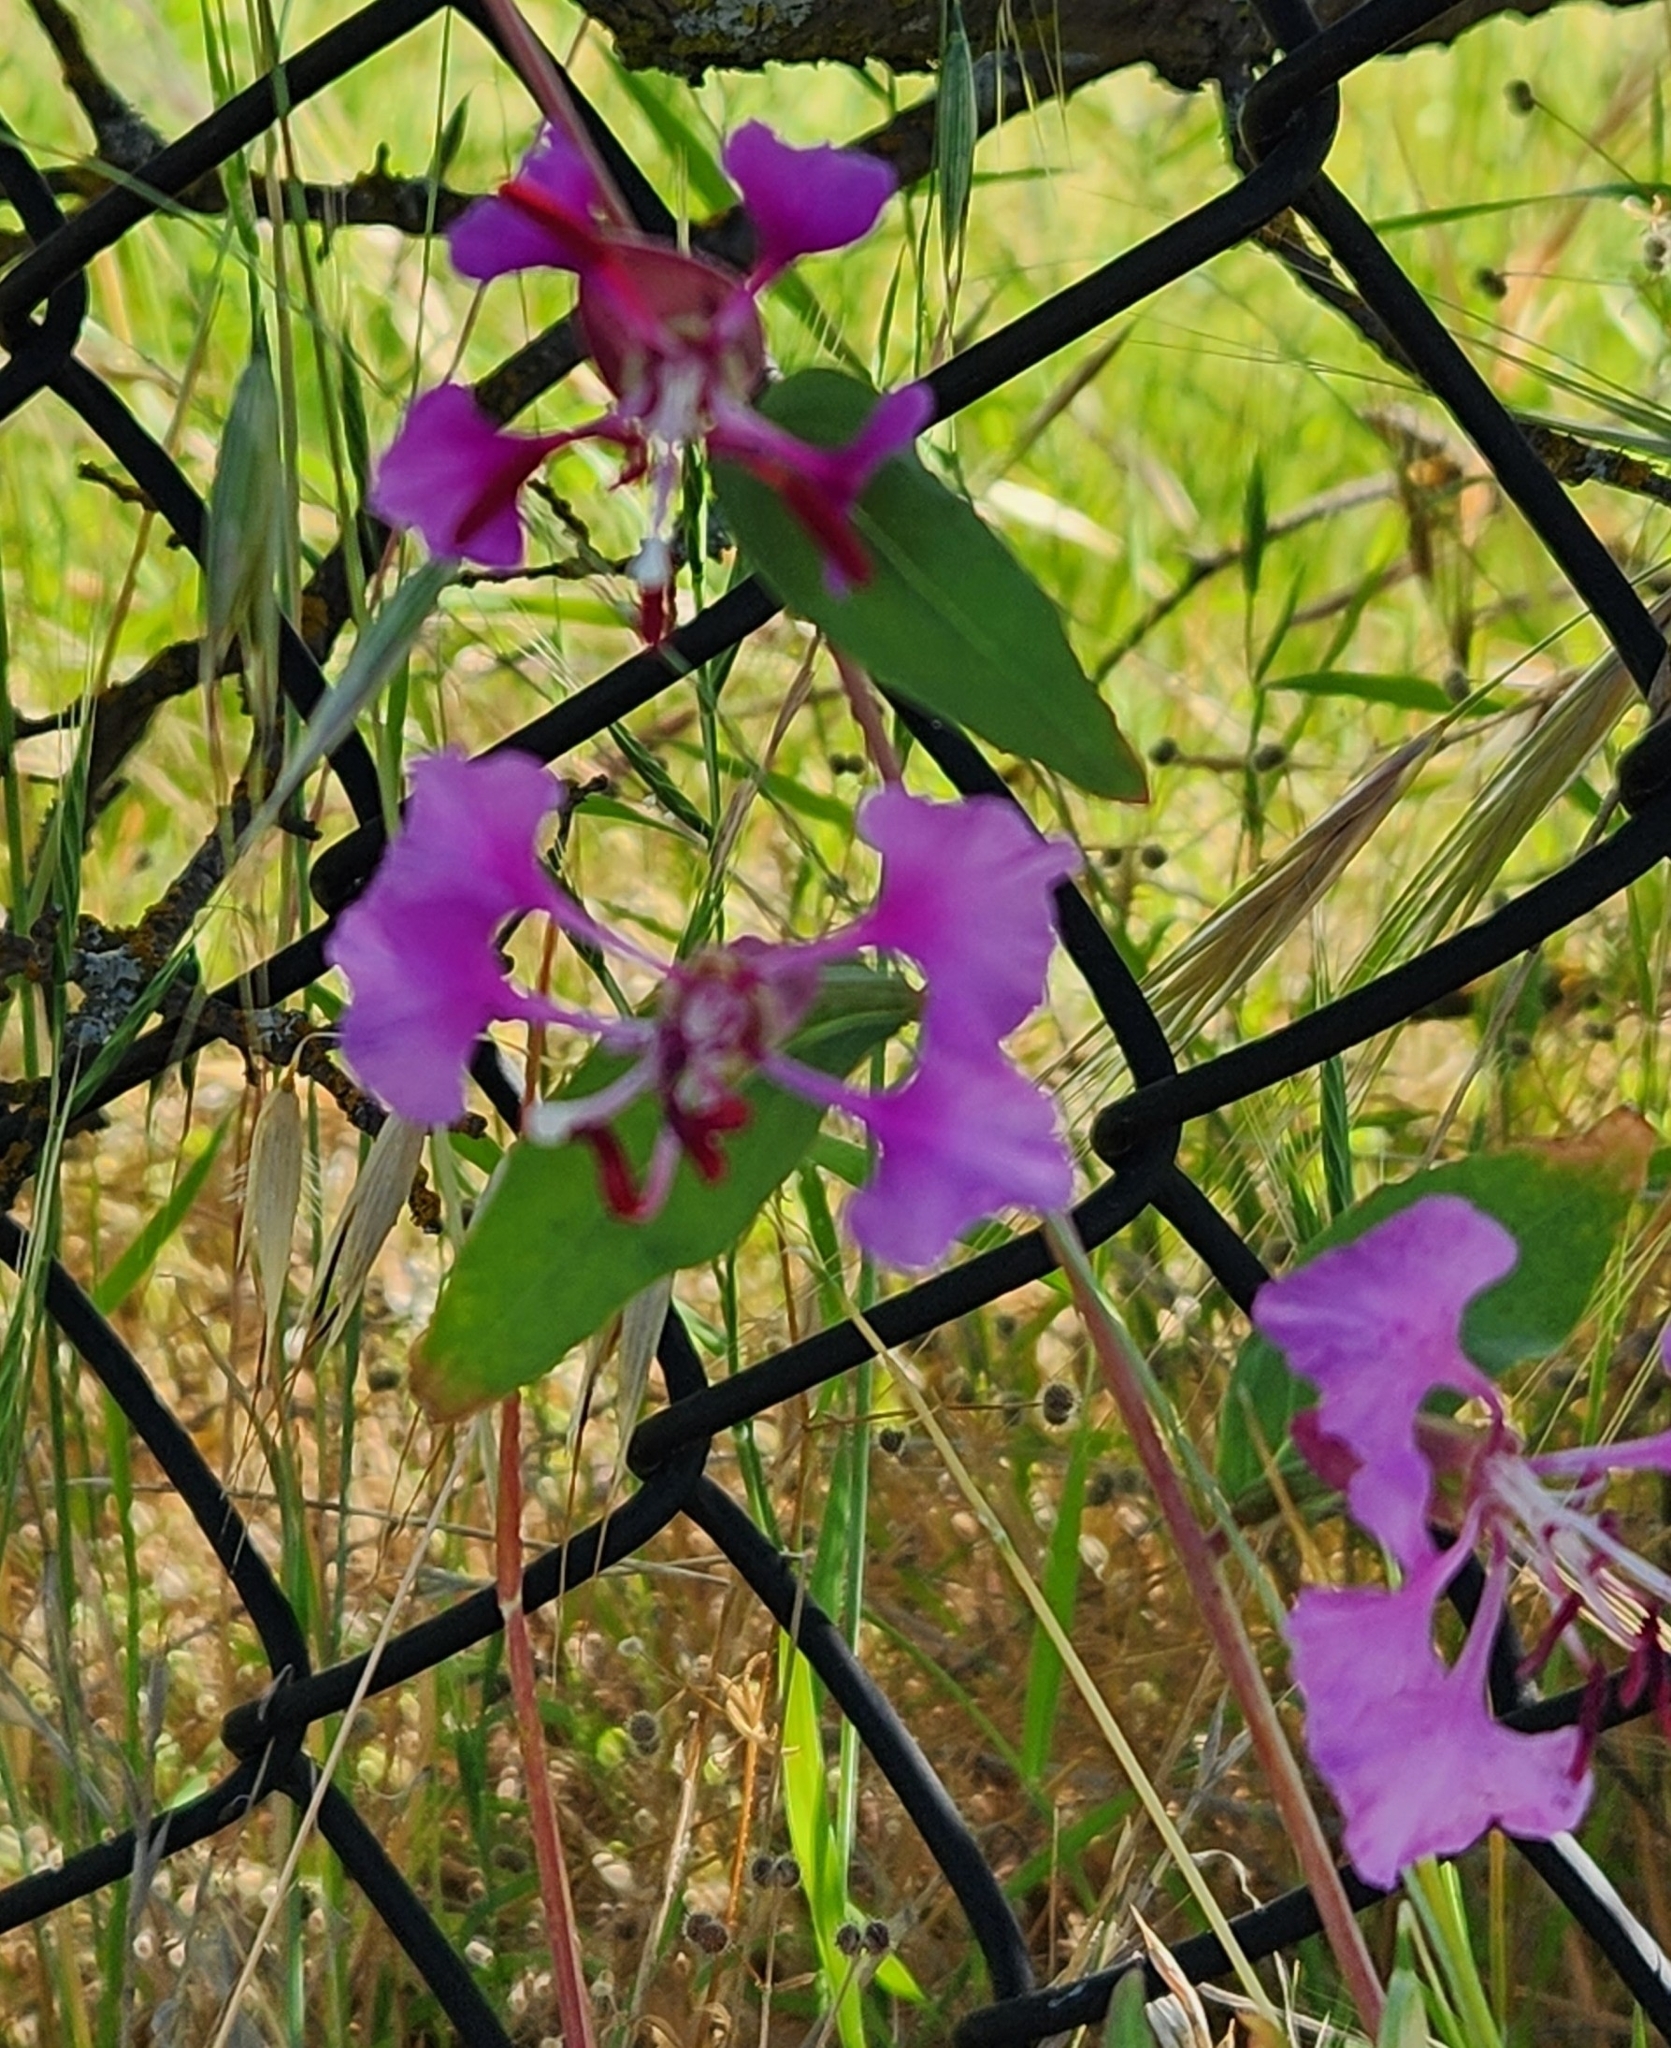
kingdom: Plantae
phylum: Tracheophyta
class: Magnoliopsida
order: Myrtales
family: Onagraceae
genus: Clarkia
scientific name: Clarkia unguiculata
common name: Clarkia
